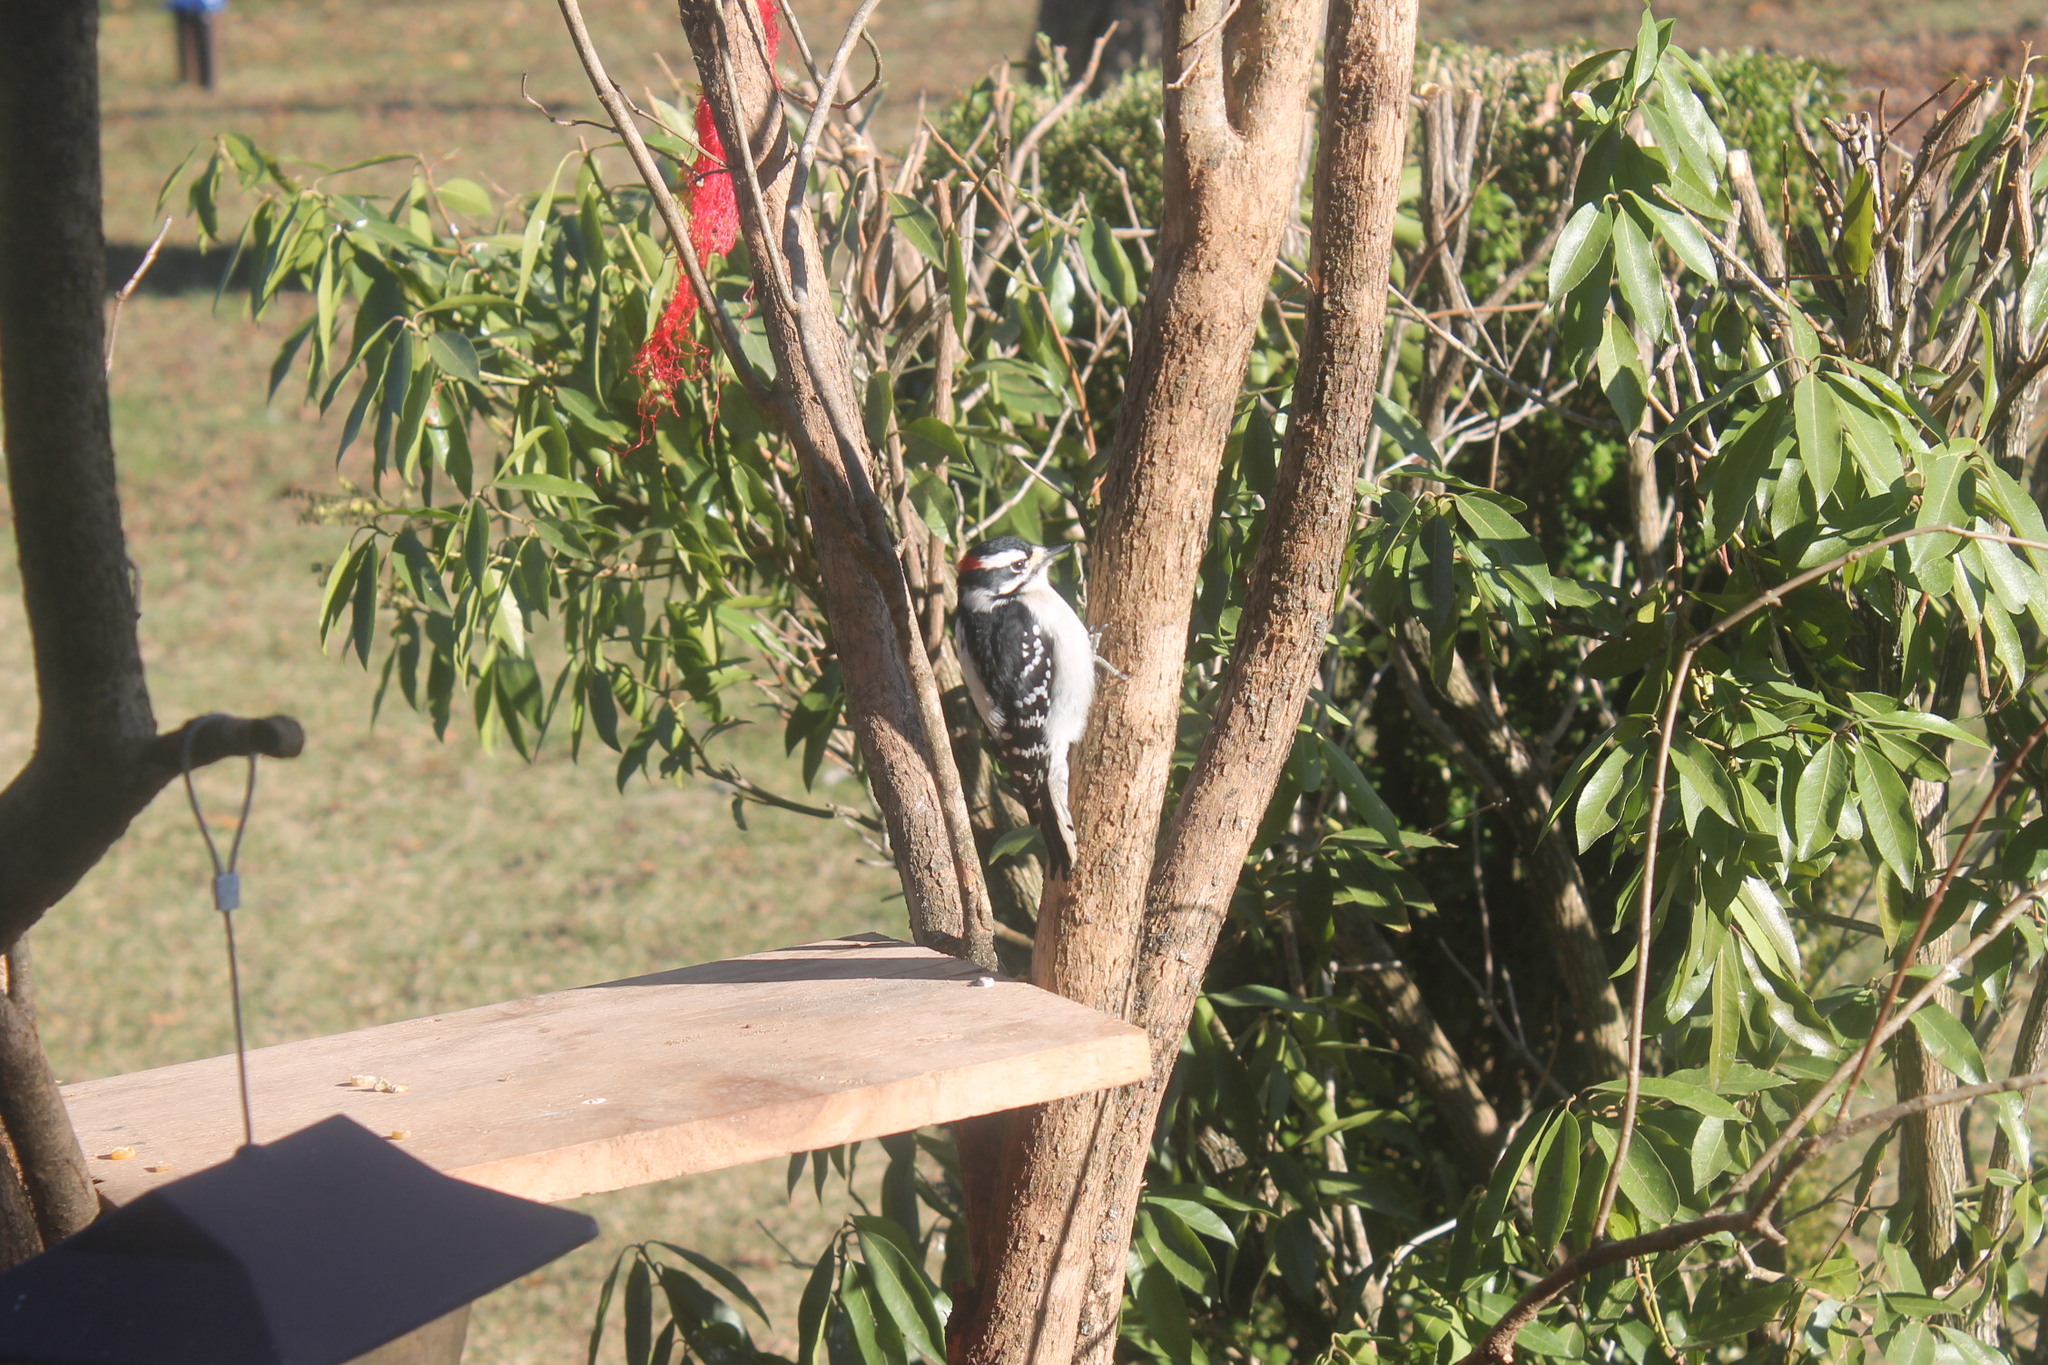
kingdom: Animalia
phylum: Chordata
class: Aves
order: Piciformes
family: Picidae
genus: Dryobates
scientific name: Dryobates pubescens
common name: Downy woodpecker
